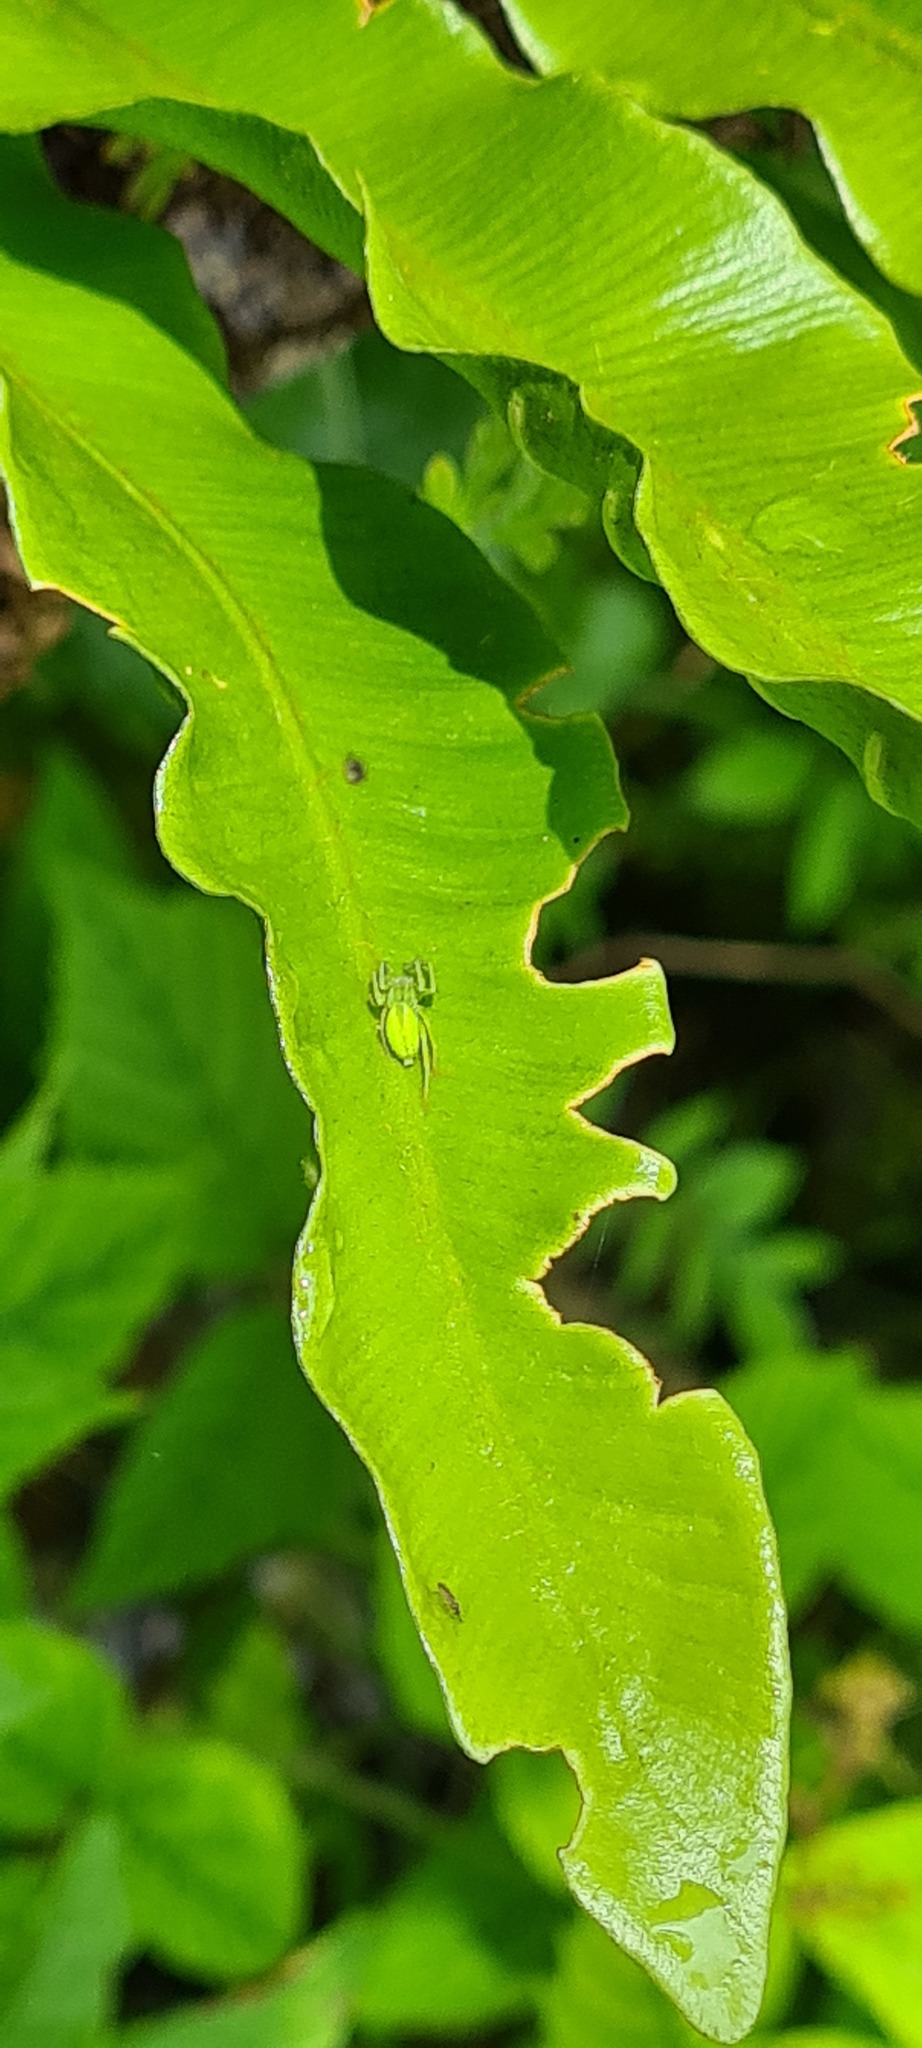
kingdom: Animalia
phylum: Arthropoda
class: Arachnida
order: Araneae
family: Cheiracanthiidae
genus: Cheiracanthium
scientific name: Cheiracanthium mildei
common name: Northern yellow sac spider
